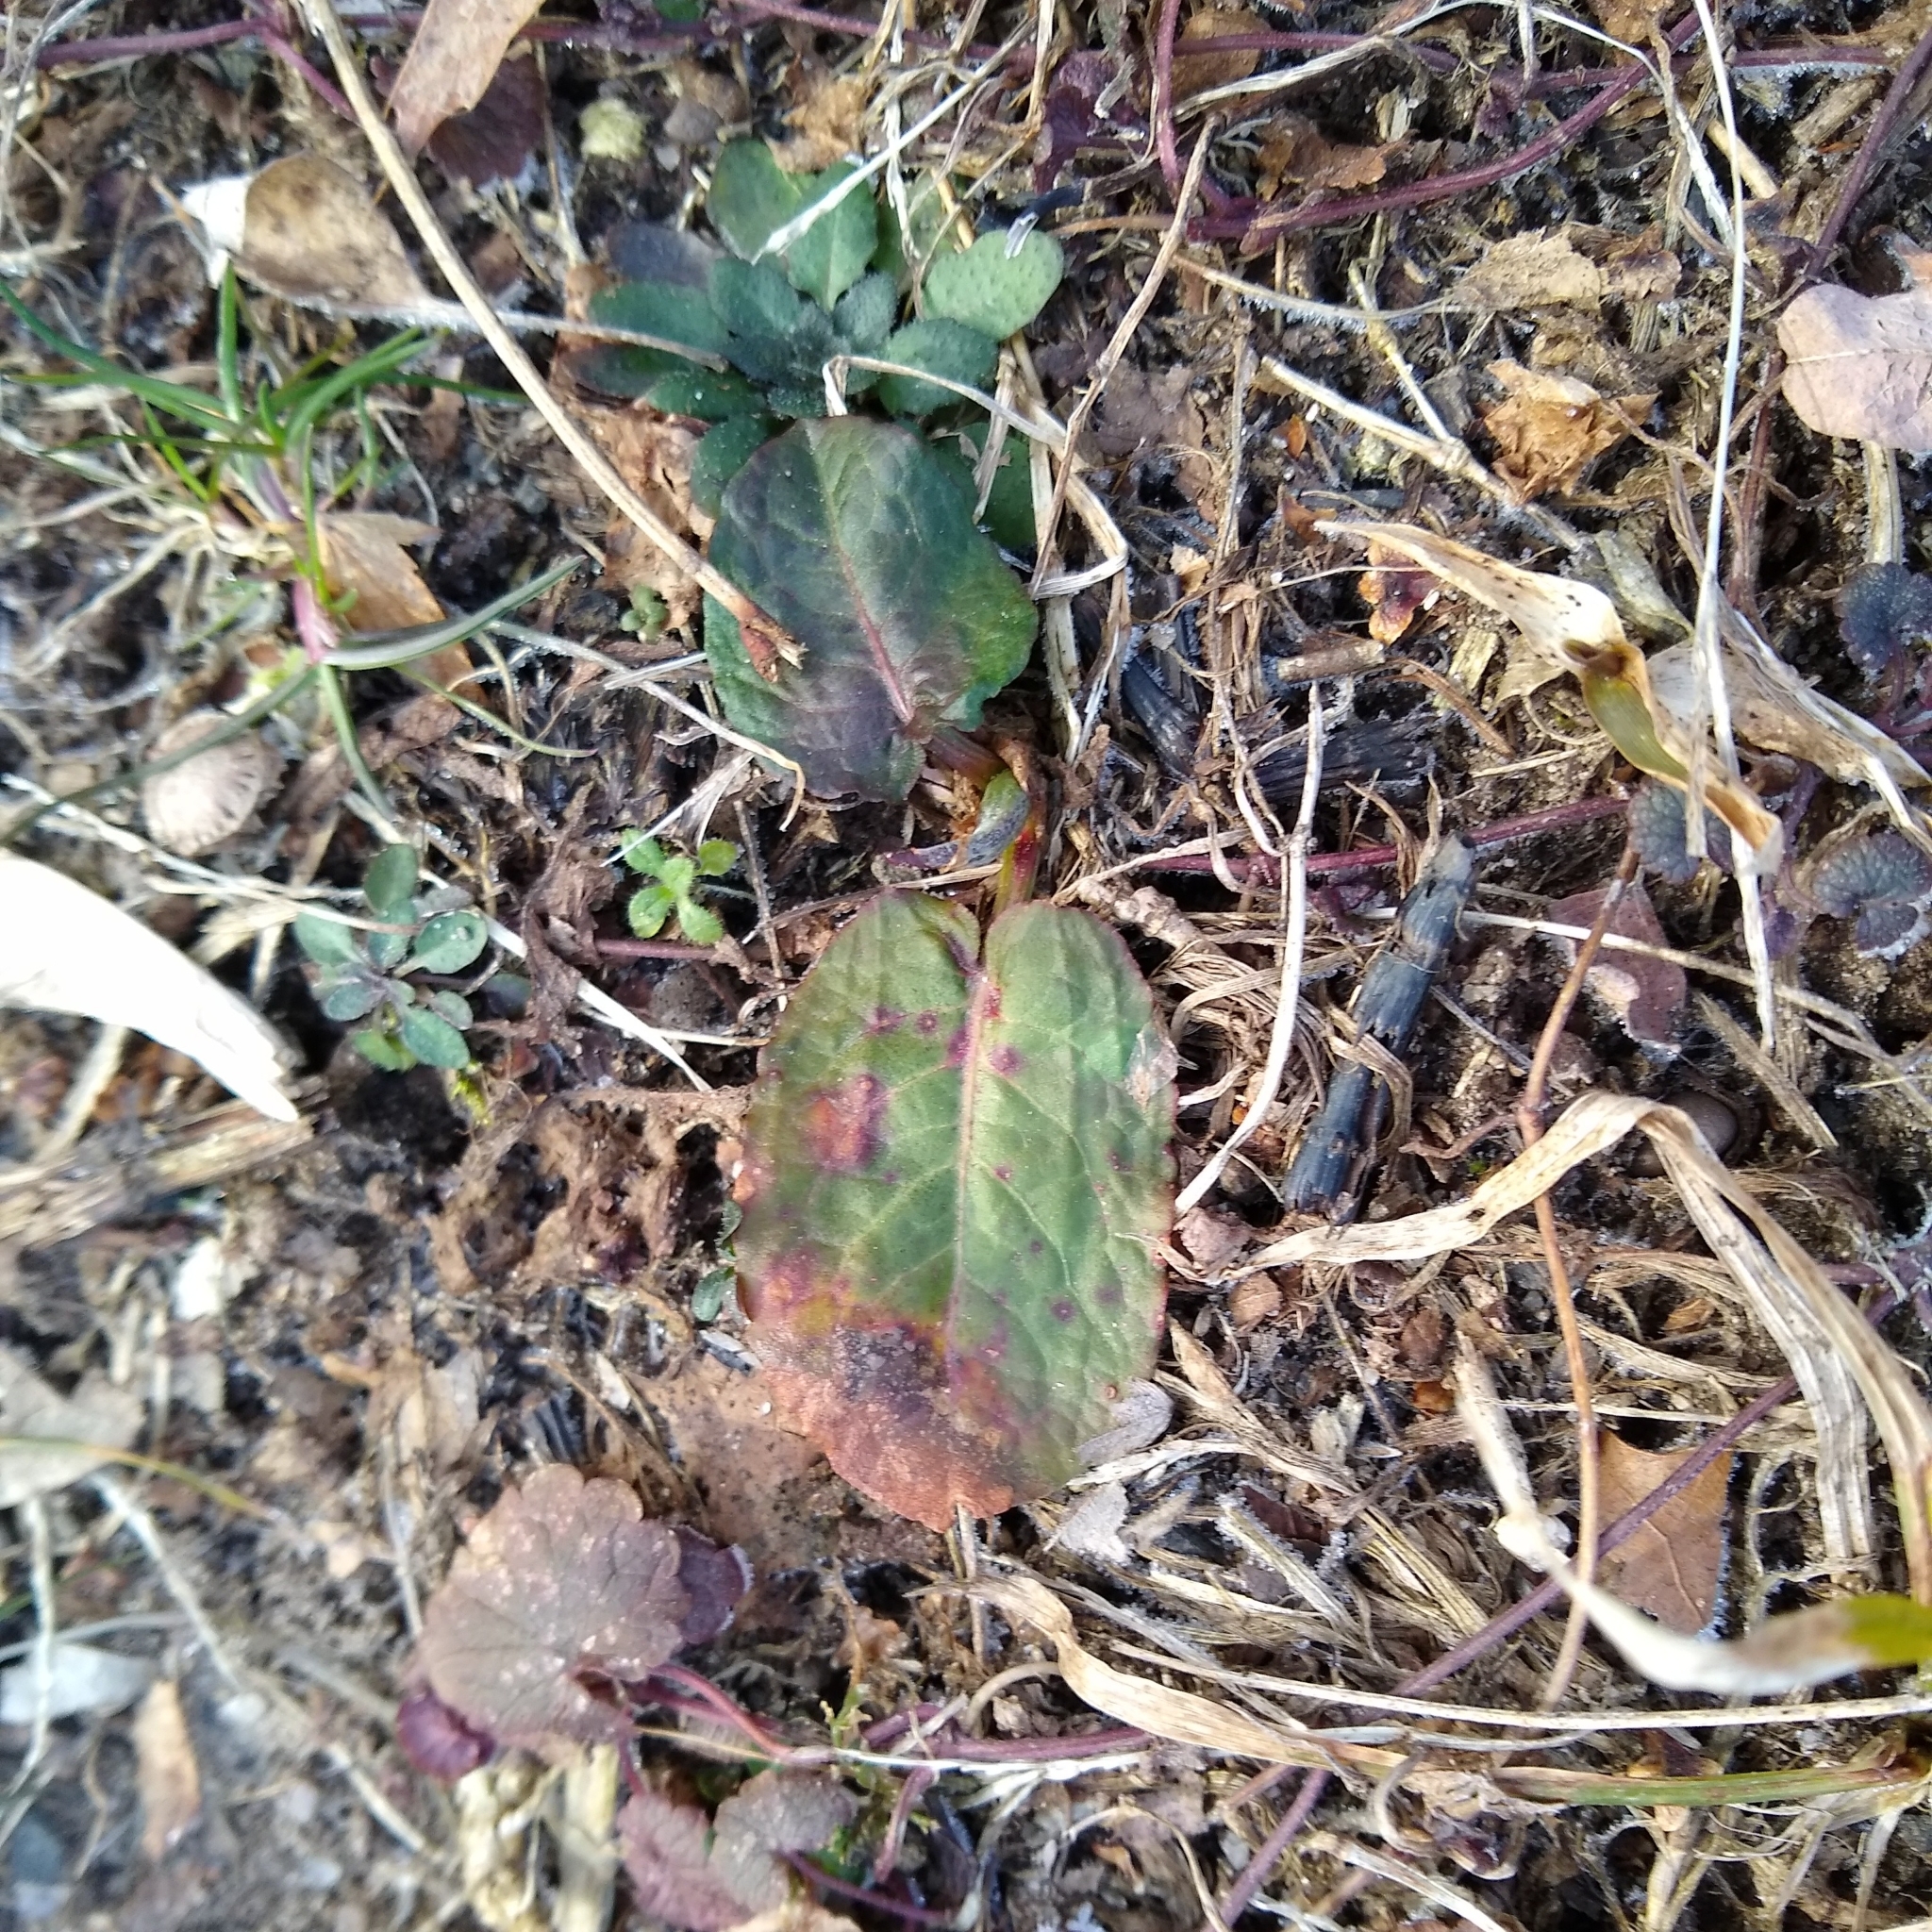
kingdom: Plantae
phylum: Tracheophyta
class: Magnoliopsida
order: Caryophyllales
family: Polygonaceae
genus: Rumex
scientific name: Rumex obtusifolius
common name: Bitter dock
